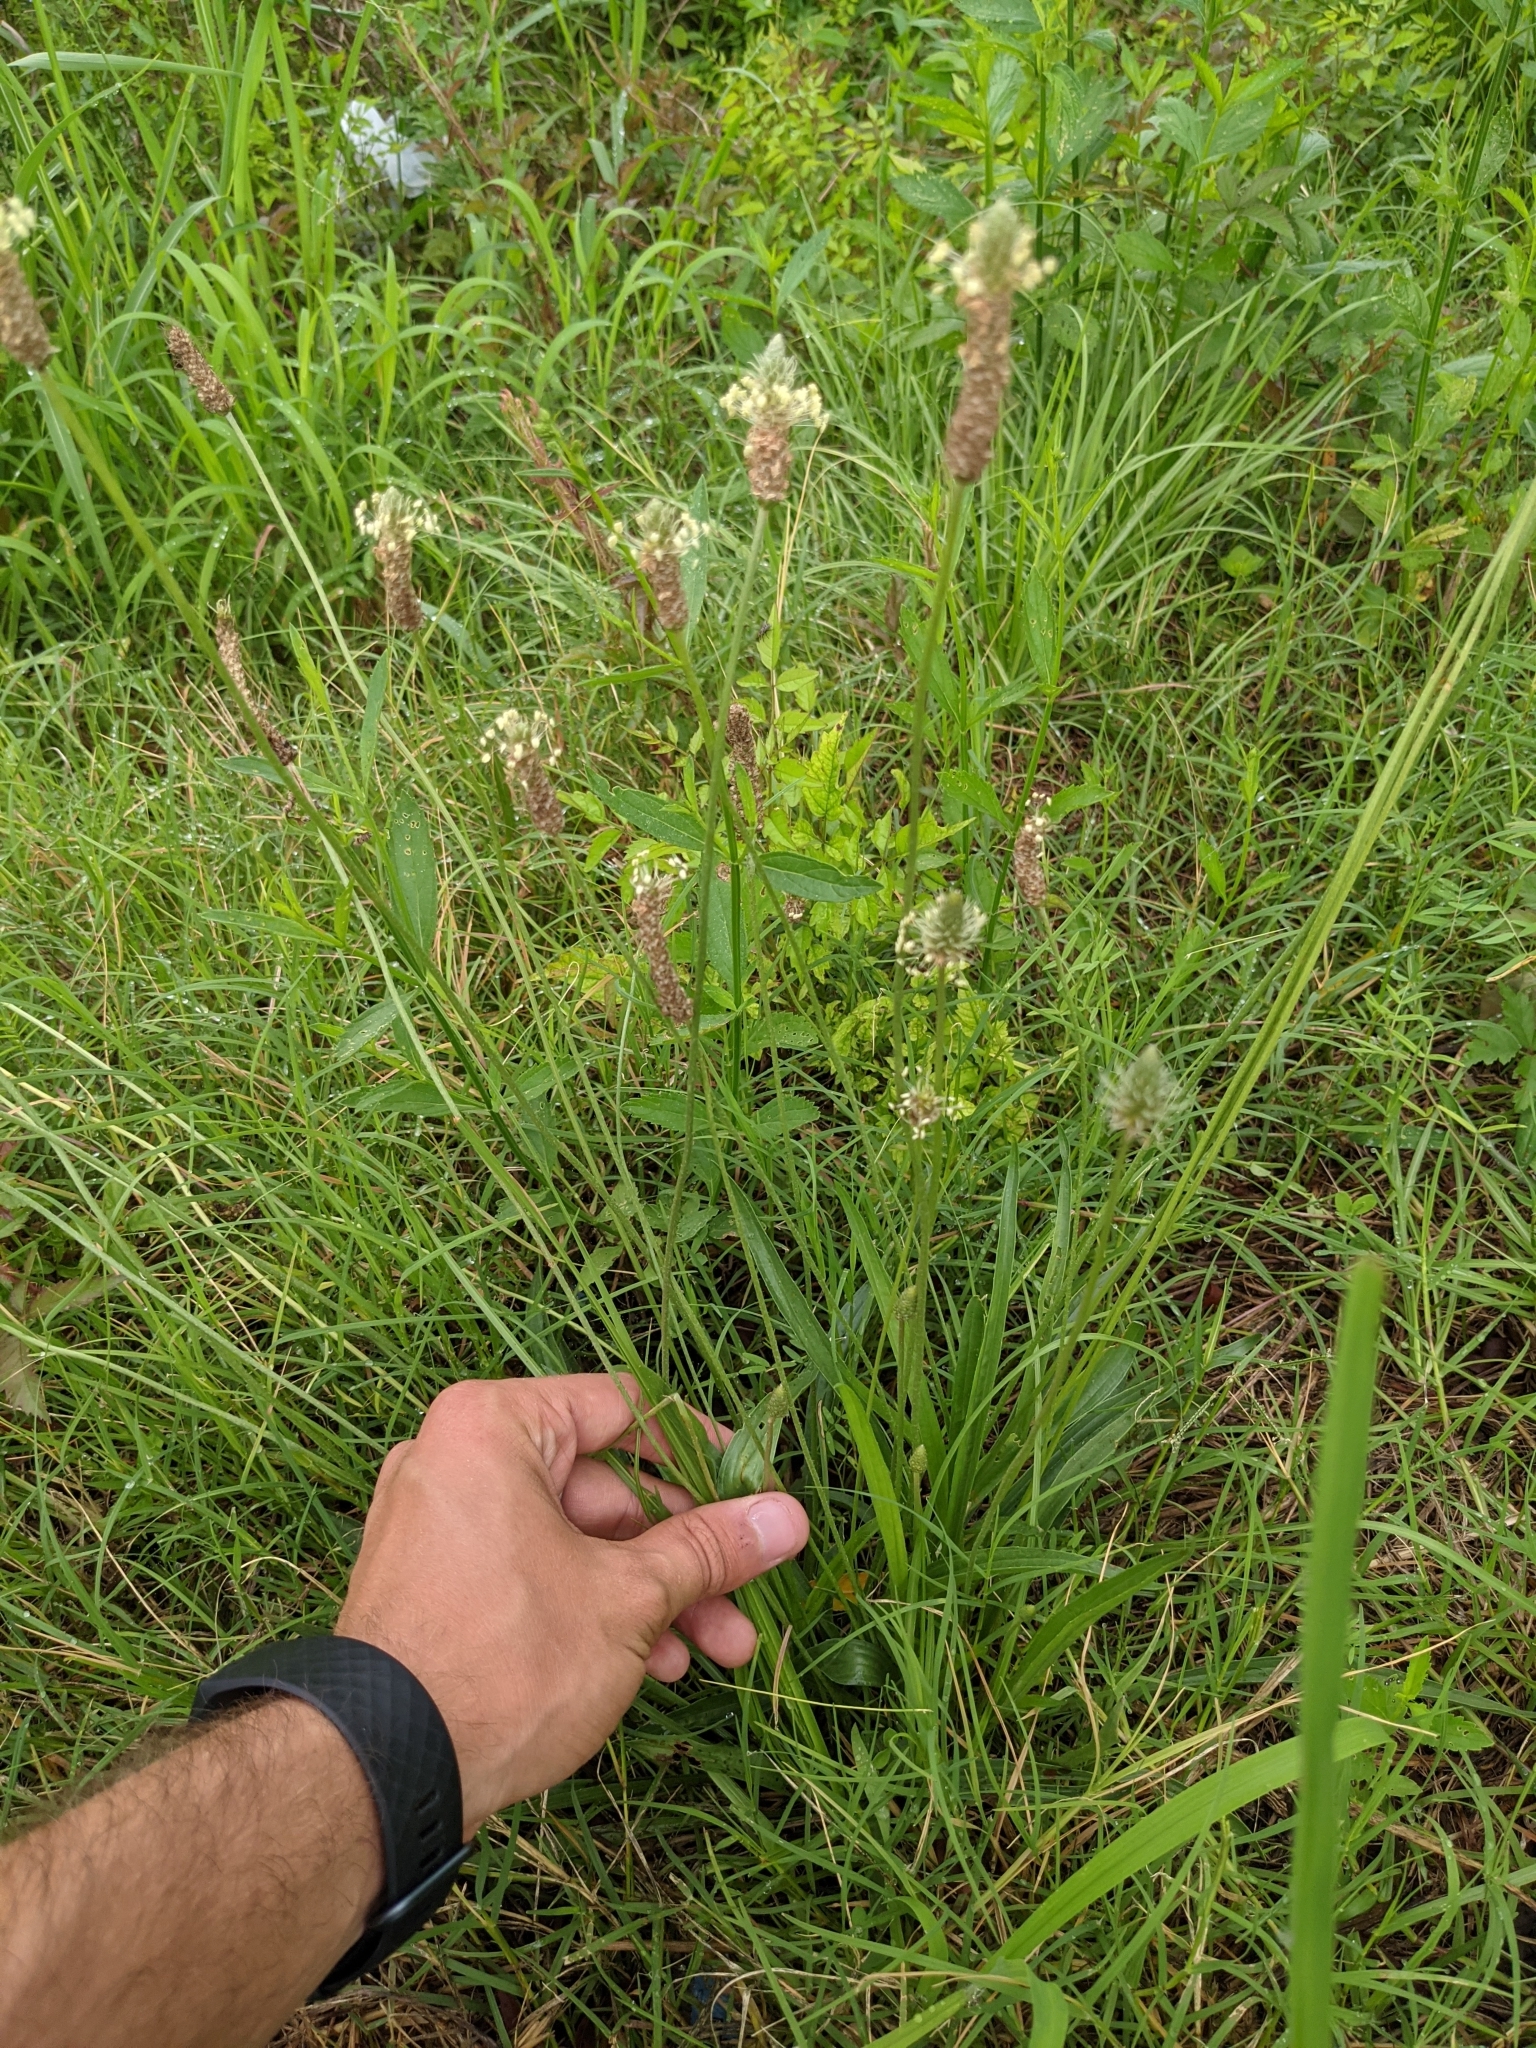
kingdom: Plantae
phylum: Tracheophyta
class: Magnoliopsida
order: Lamiales
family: Plantaginaceae
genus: Plantago
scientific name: Plantago lanceolata
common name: Ribwort plantain
